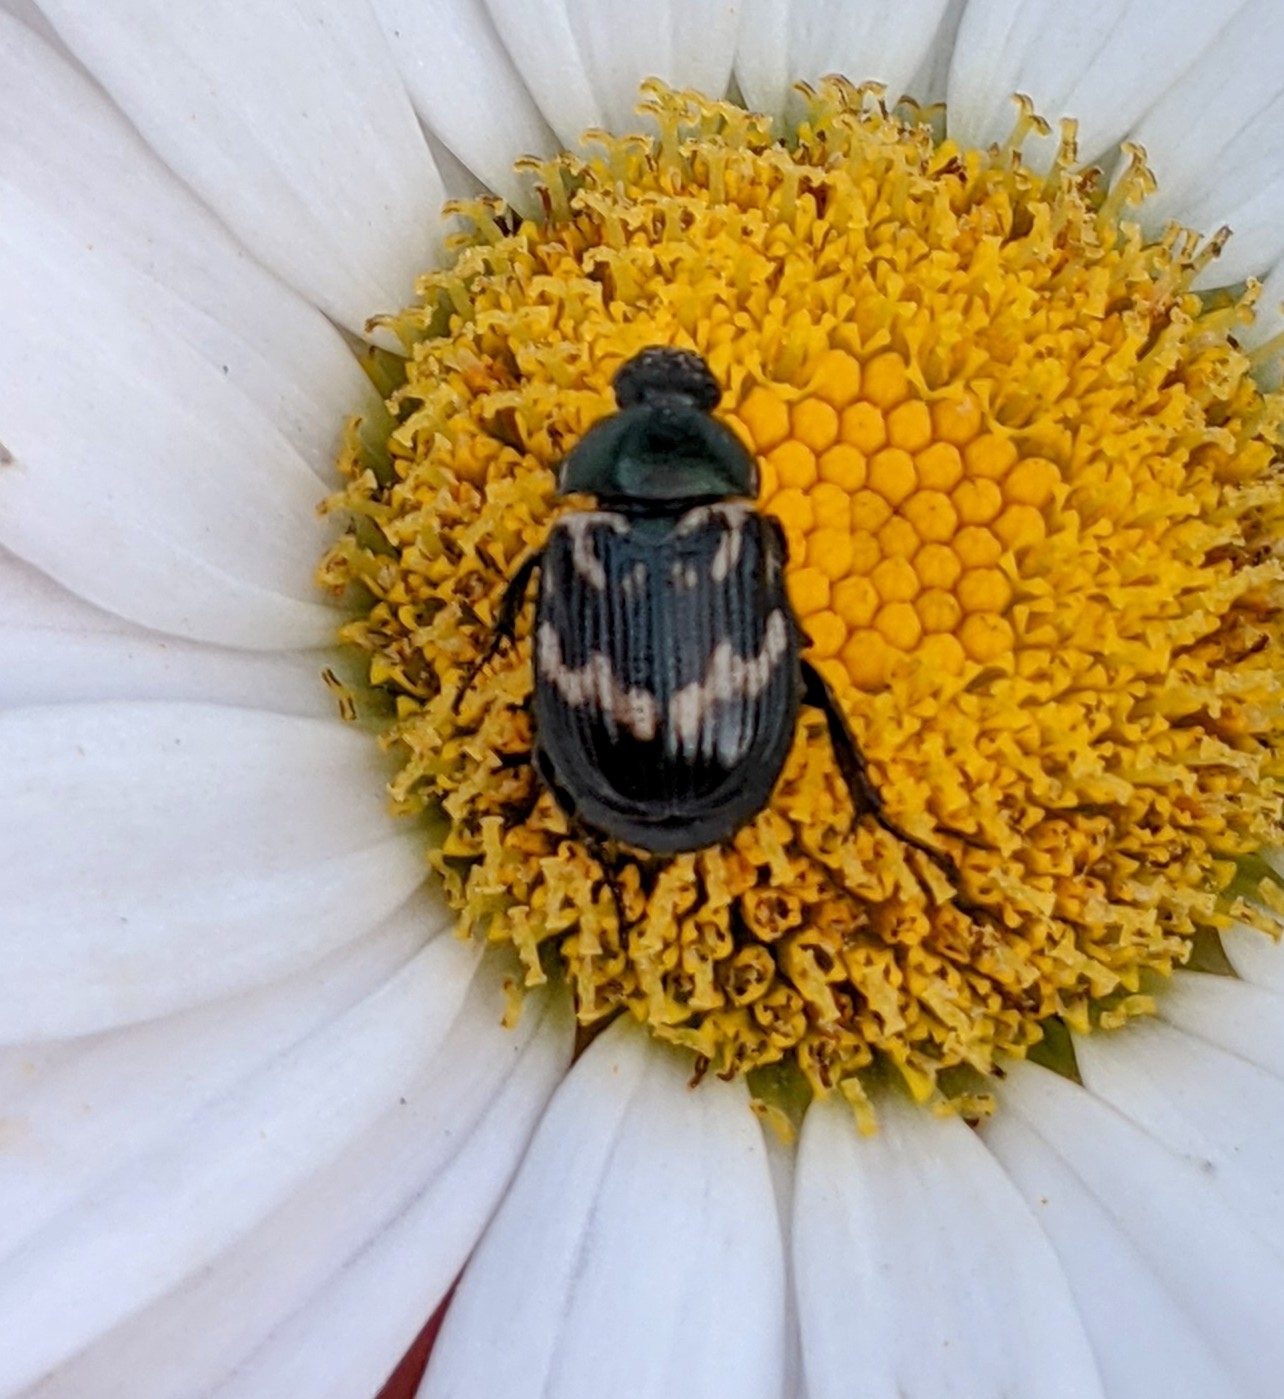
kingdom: Animalia
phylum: Arthropoda
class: Insecta
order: Coleoptera
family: Scarabaeidae
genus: Exomala
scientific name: Exomala orientalis
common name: Oriental beetle
